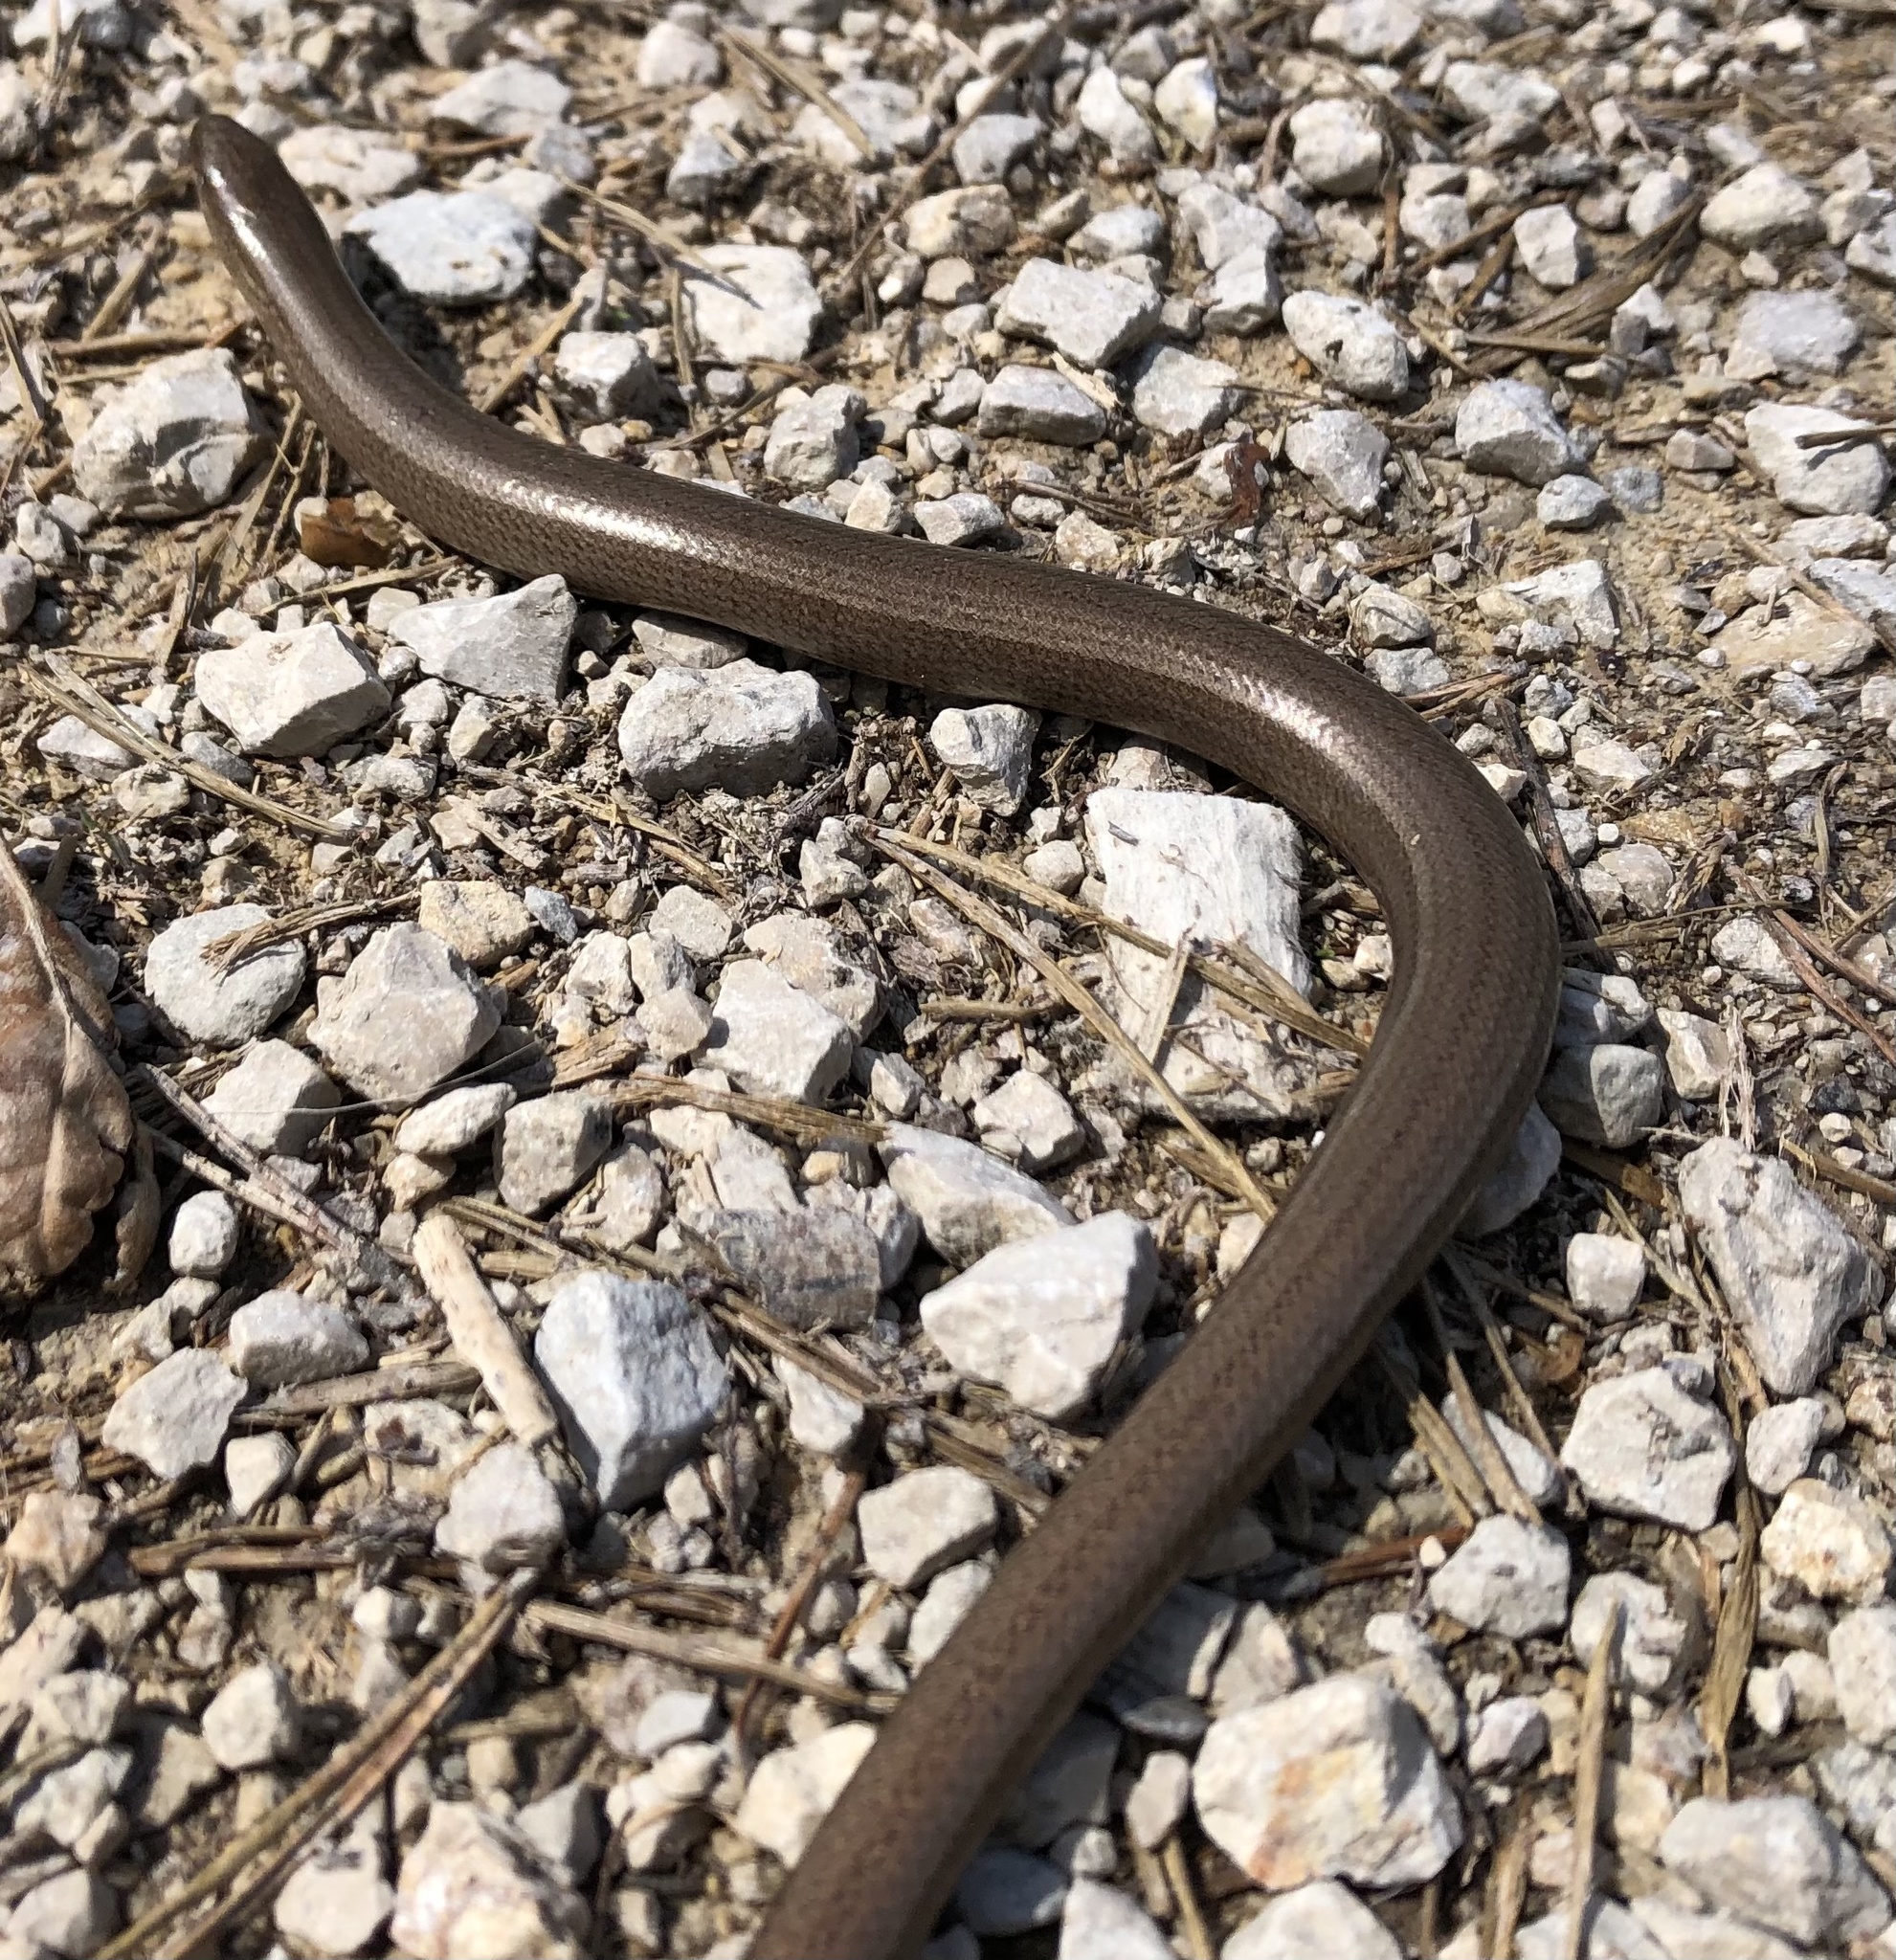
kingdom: Animalia
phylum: Chordata
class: Squamata
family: Anguidae
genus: Anguis
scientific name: Anguis fragilis
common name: Slow worm
